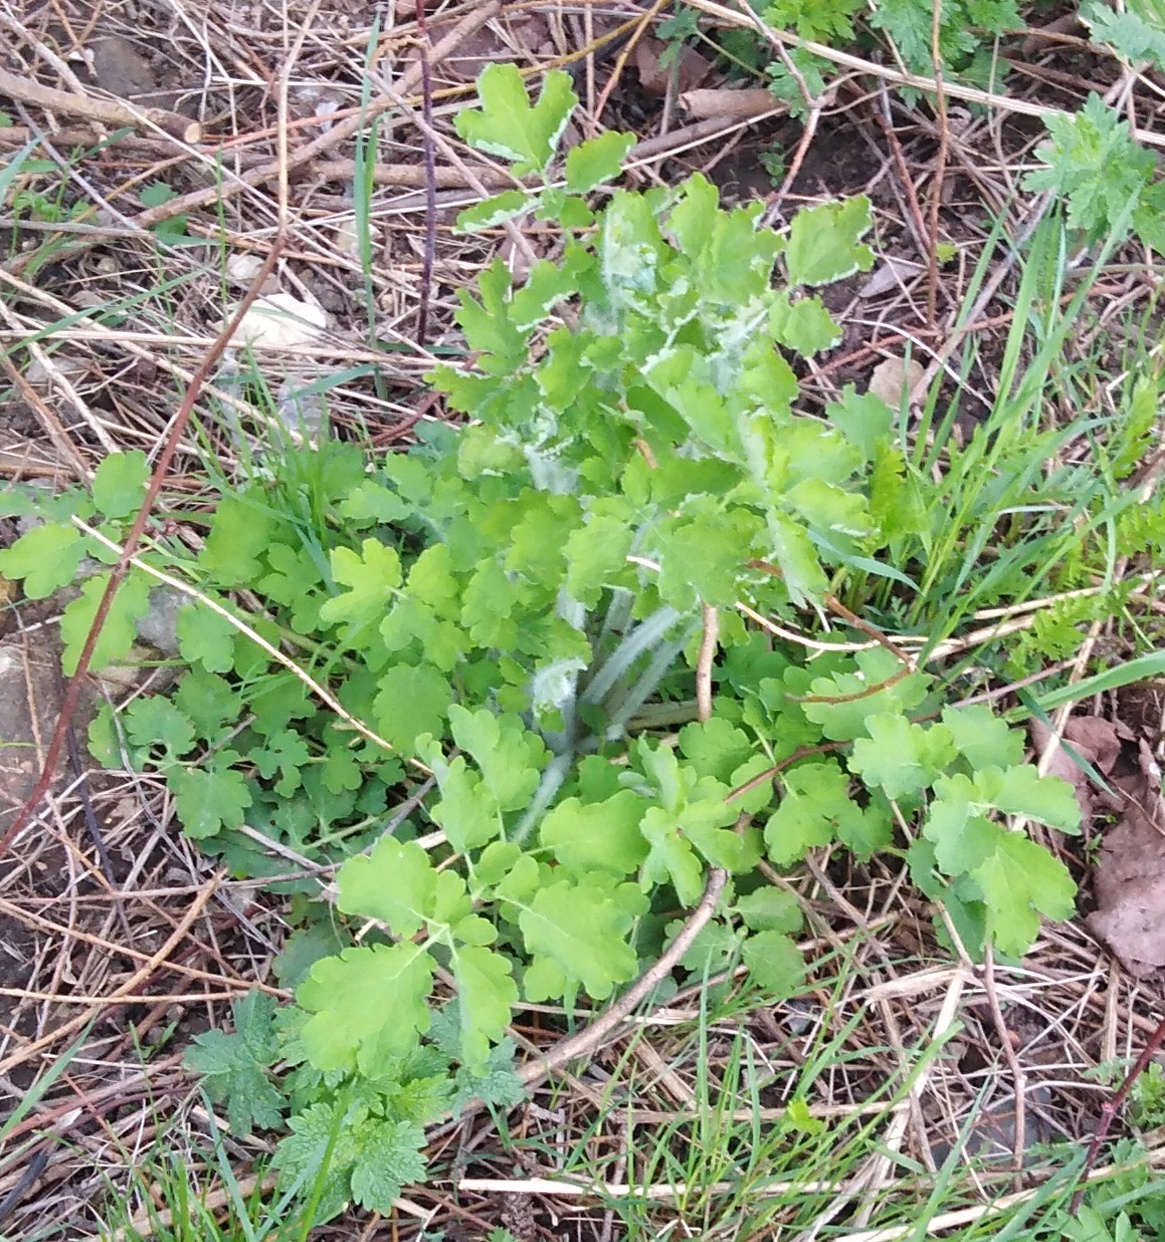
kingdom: Plantae
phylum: Tracheophyta
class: Magnoliopsida
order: Ranunculales
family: Papaveraceae
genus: Chelidonium
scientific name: Chelidonium majus
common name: Greater celandine
